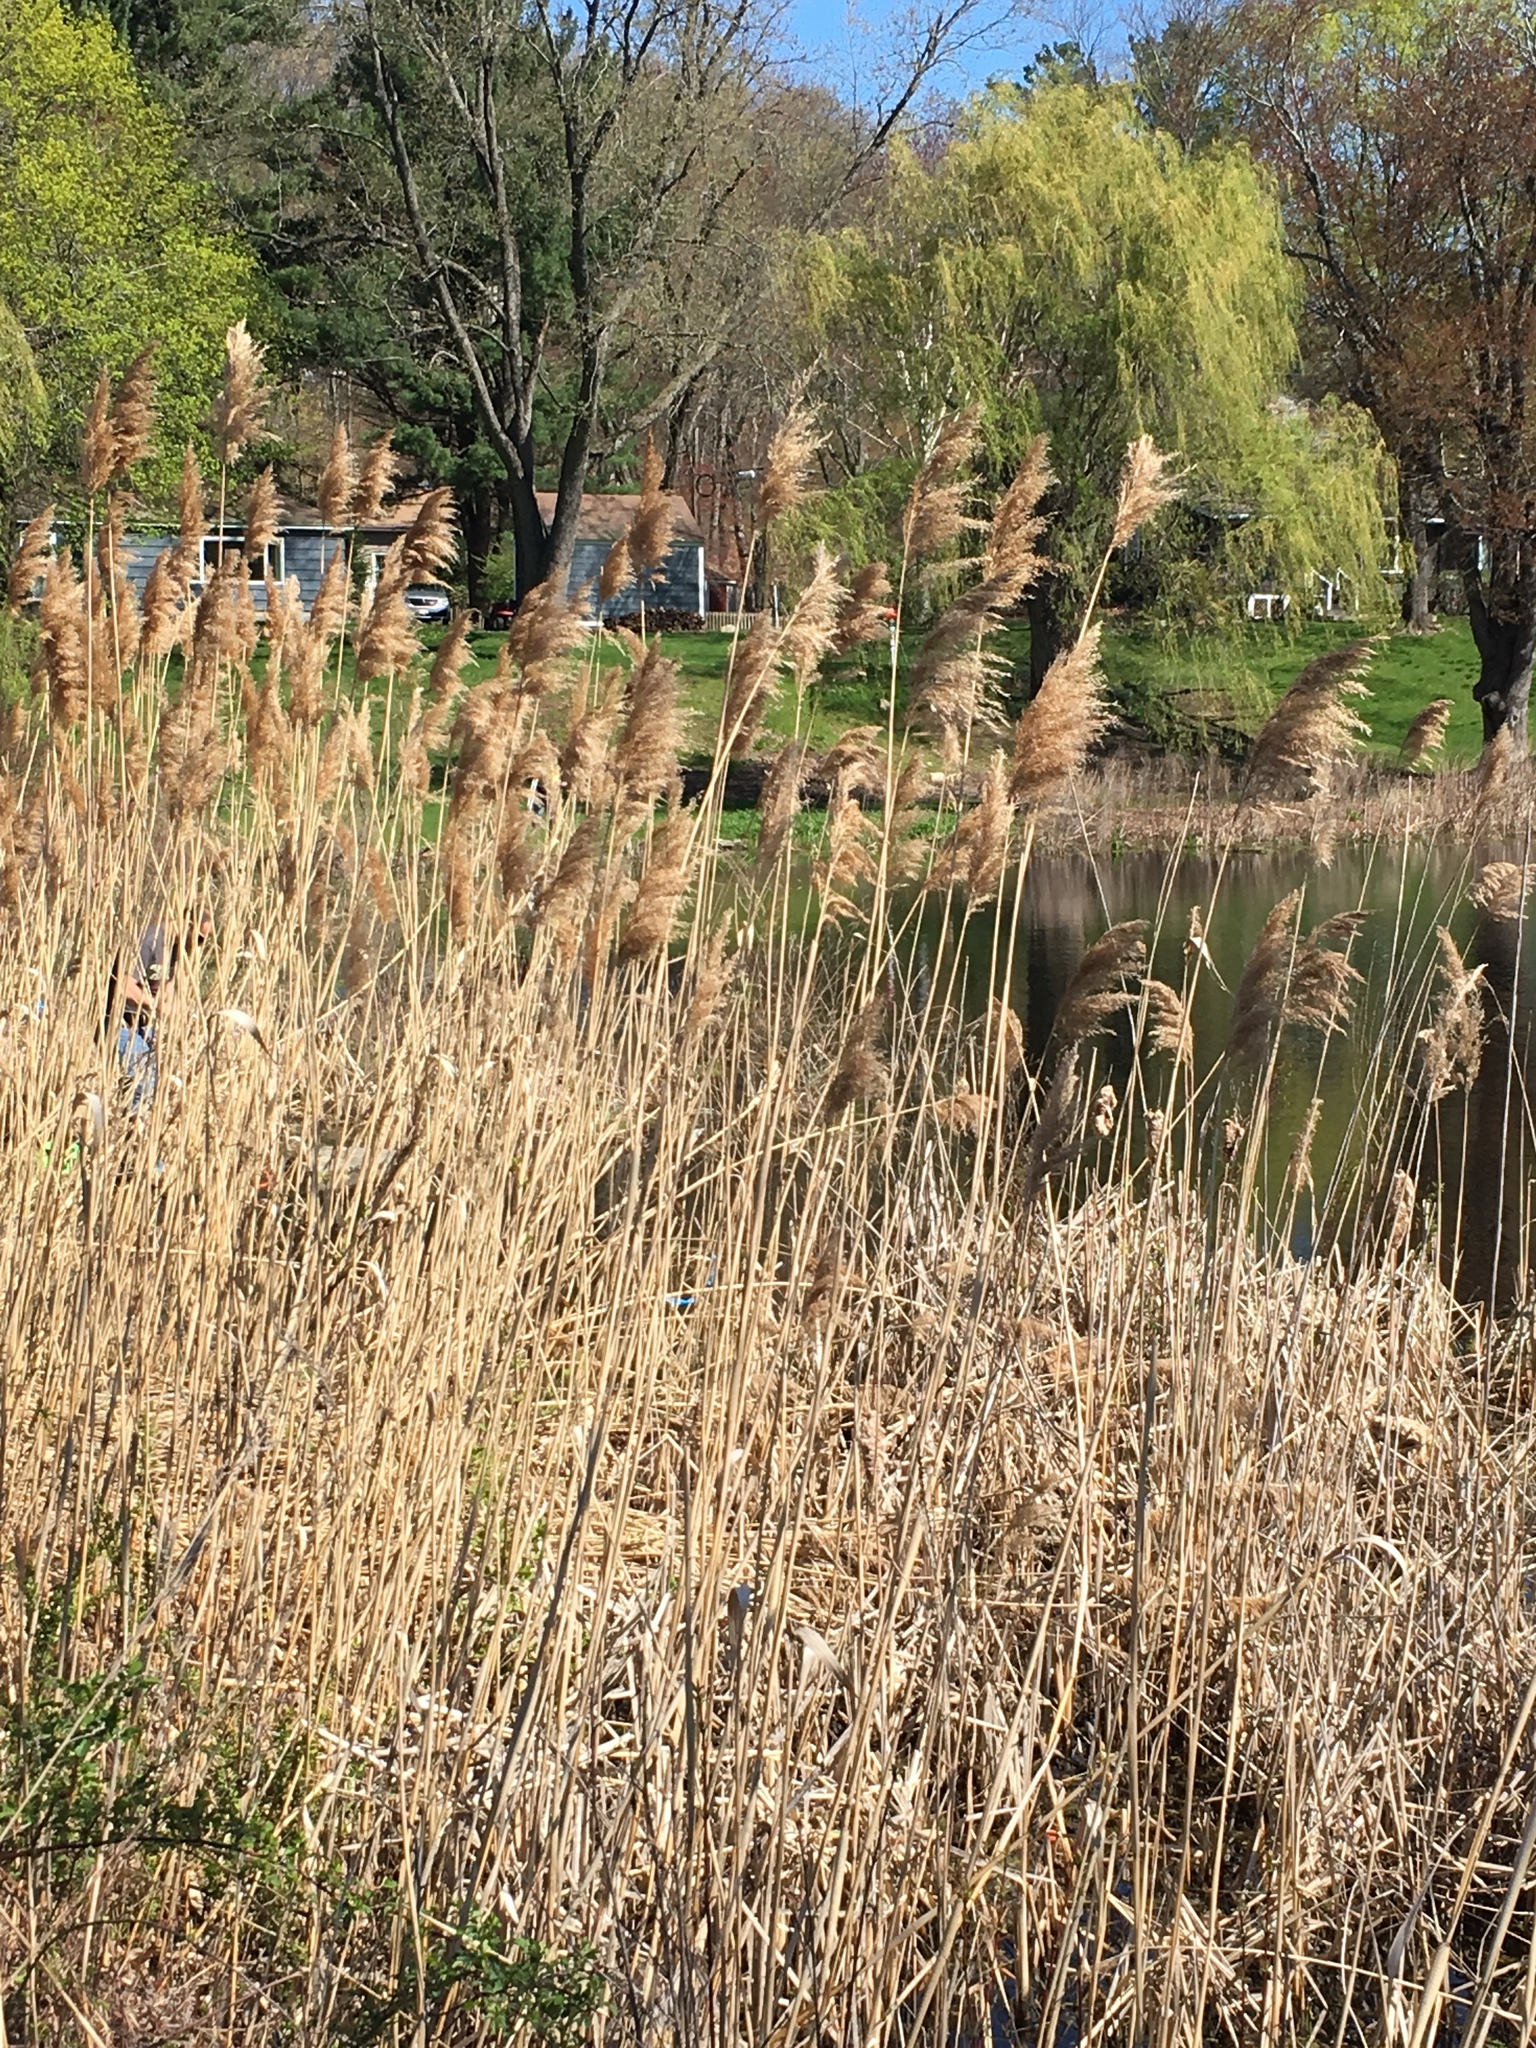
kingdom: Plantae
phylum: Tracheophyta
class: Liliopsida
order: Poales
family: Poaceae
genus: Phragmites
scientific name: Phragmites australis
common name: Common reed
